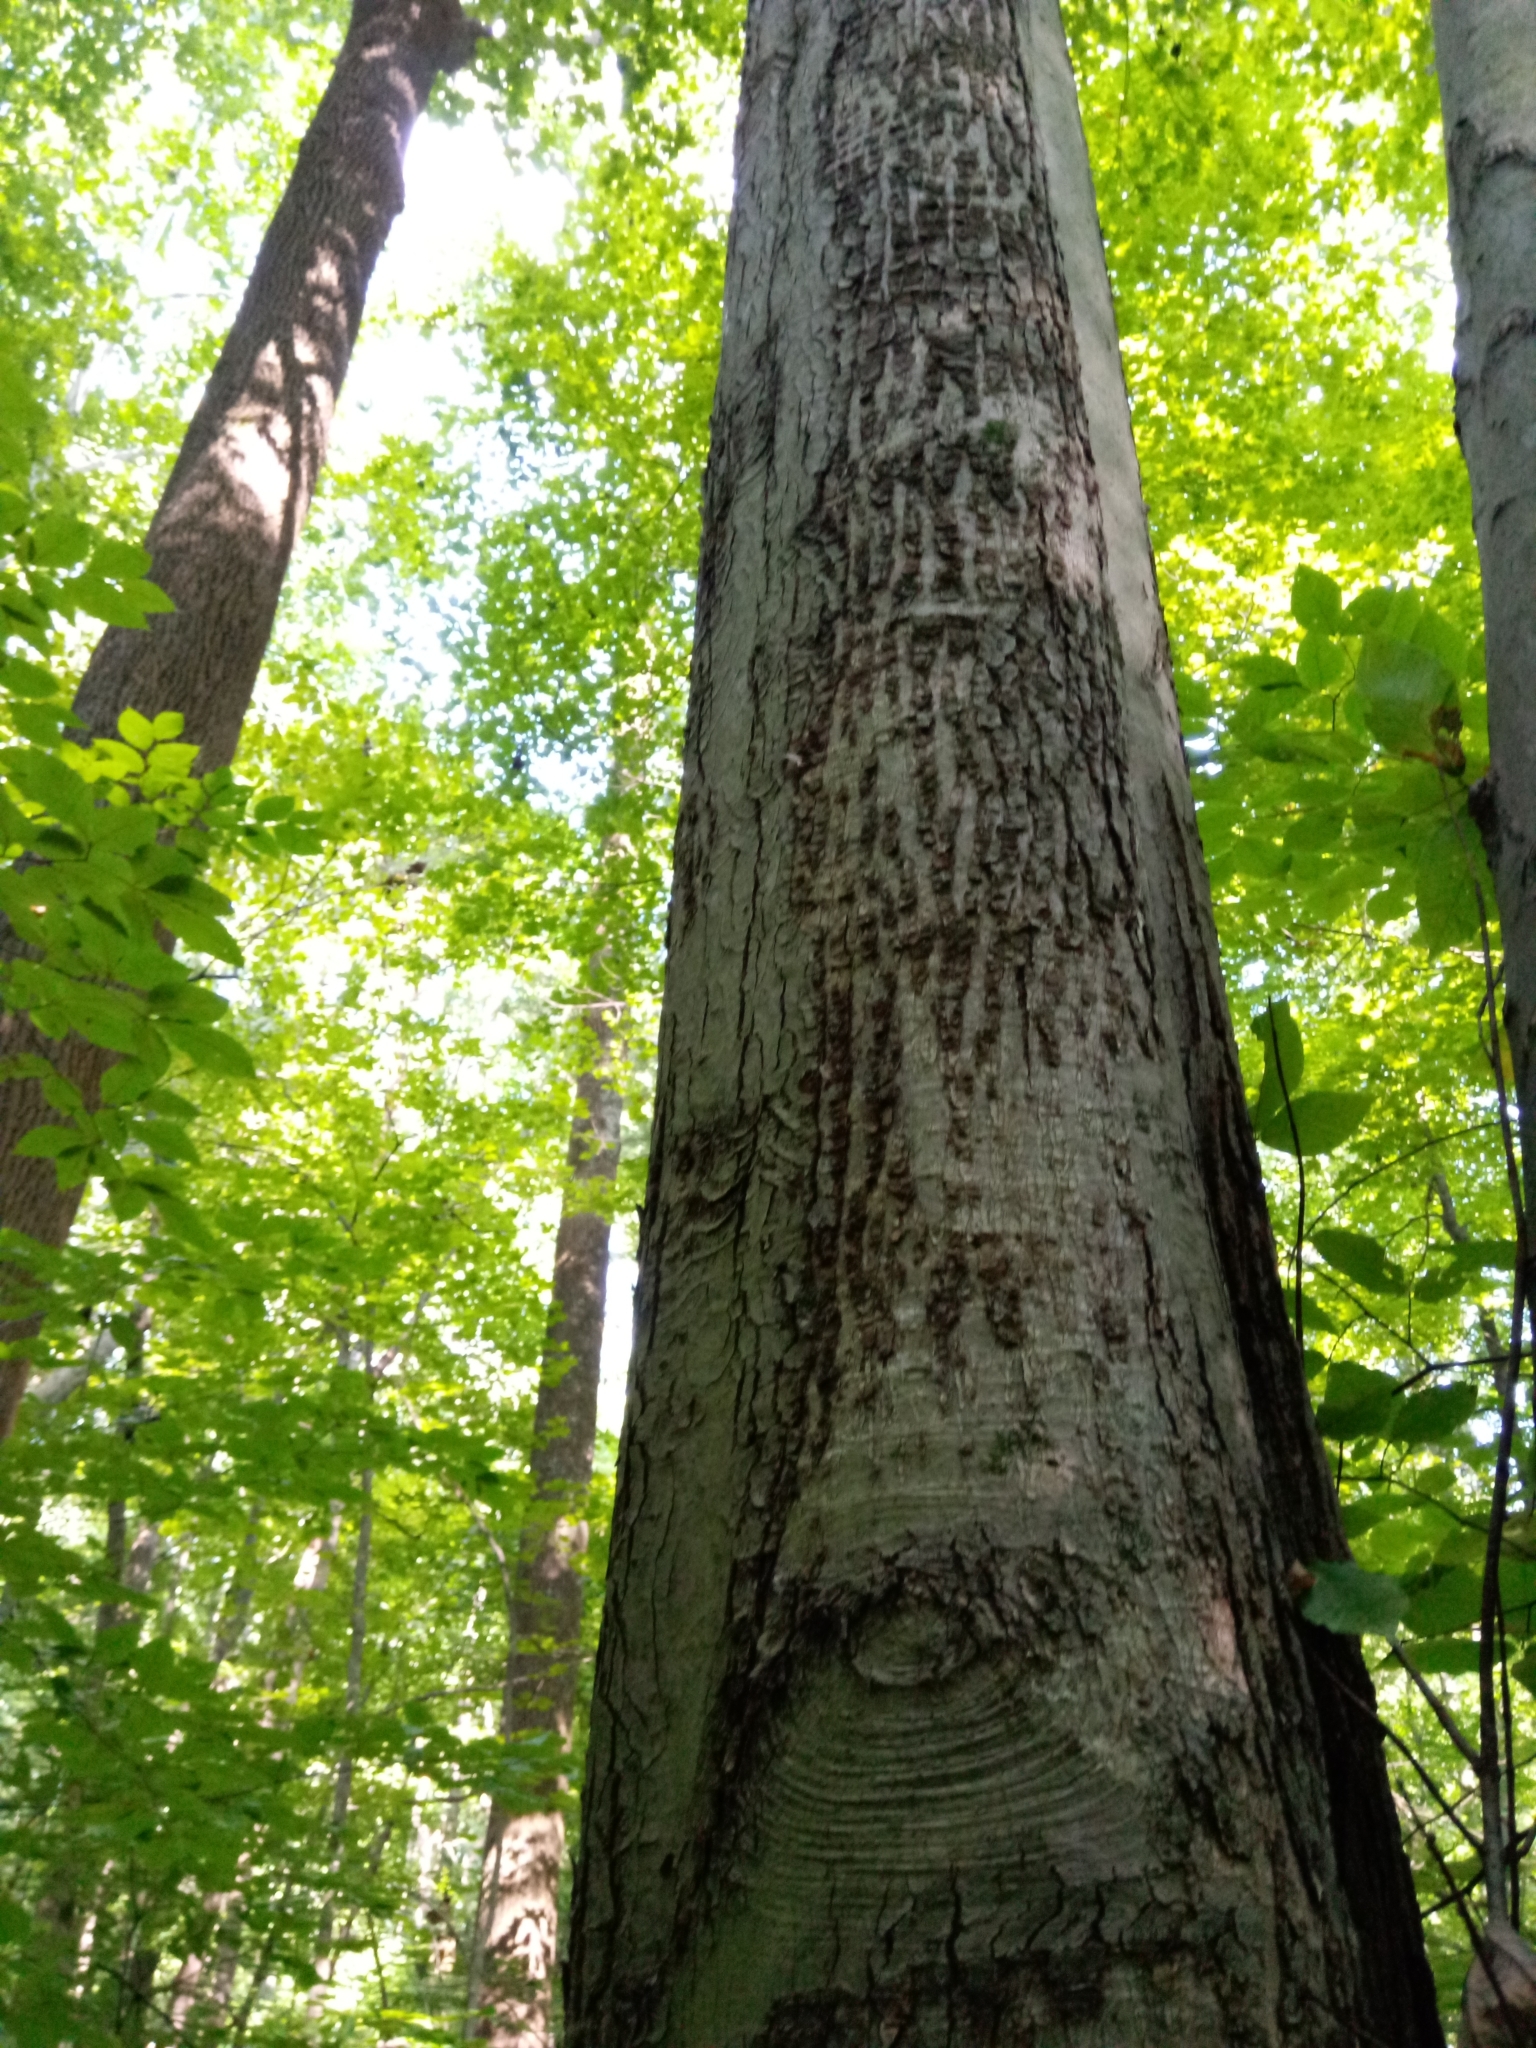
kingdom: Fungi
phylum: Ascomycota
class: Sordariomycetes
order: Hypocreales
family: Nectriaceae
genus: Neonectria
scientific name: Neonectria ditissima
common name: Apple canker
